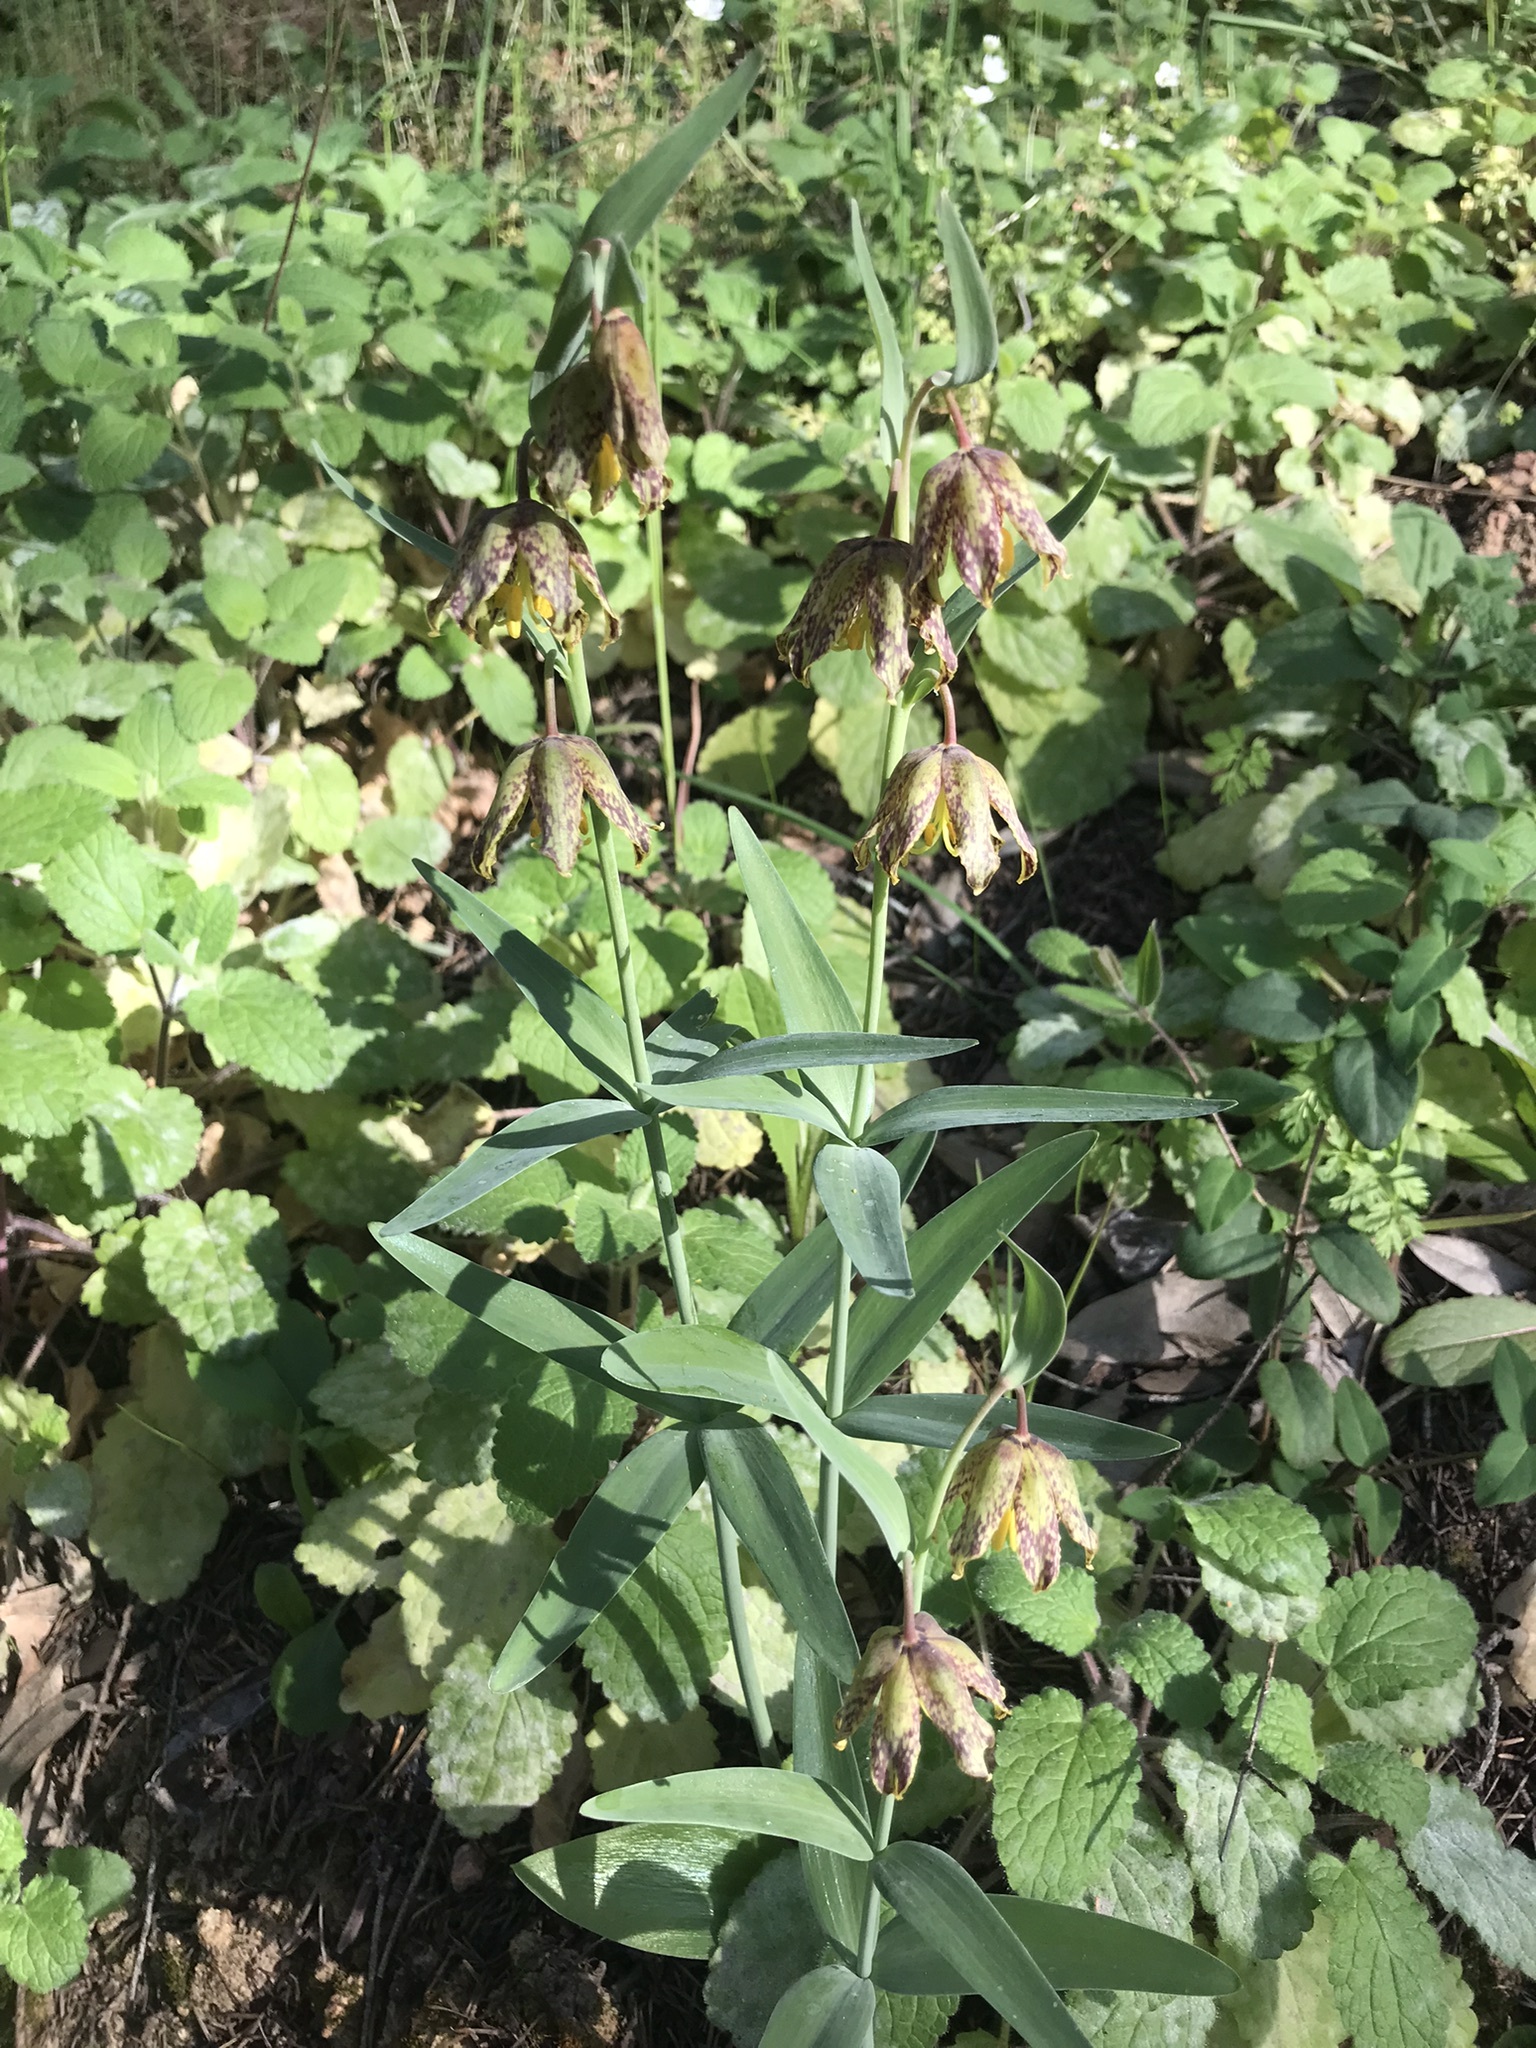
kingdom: Plantae
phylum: Tracheophyta
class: Liliopsida
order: Liliales
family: Liliaceae
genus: Fritillaria
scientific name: Fritillaria affinis
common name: Ojai fritillary
